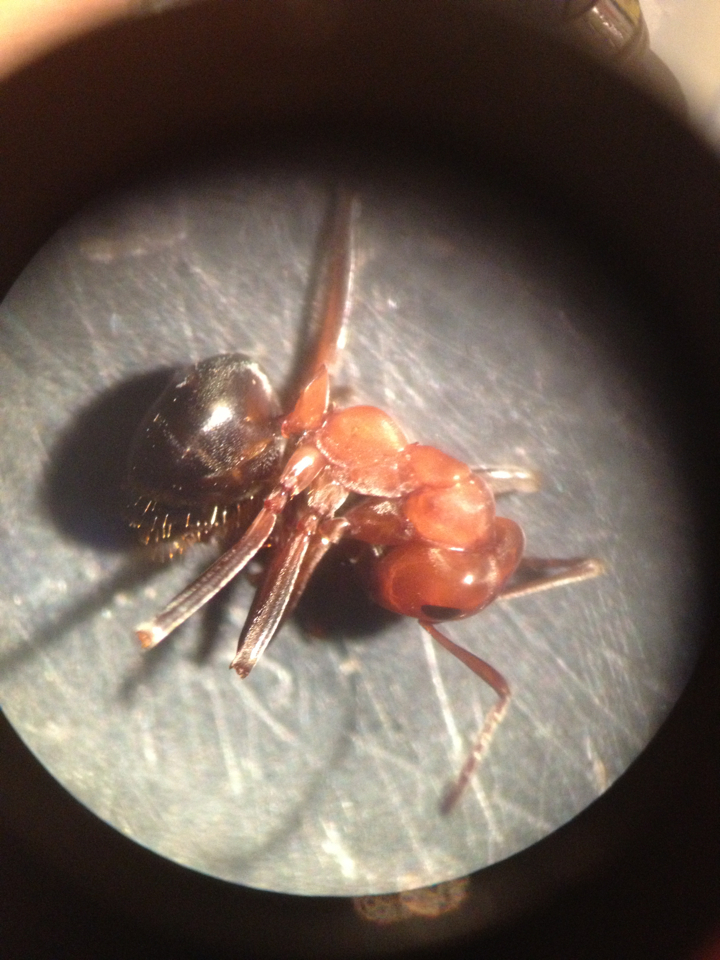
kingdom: Animalia
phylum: Arthropoda
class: Insecta
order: Hymenoptera
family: Formicidae
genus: Formica
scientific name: Formica exsectoides
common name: Allegheny mound ant
